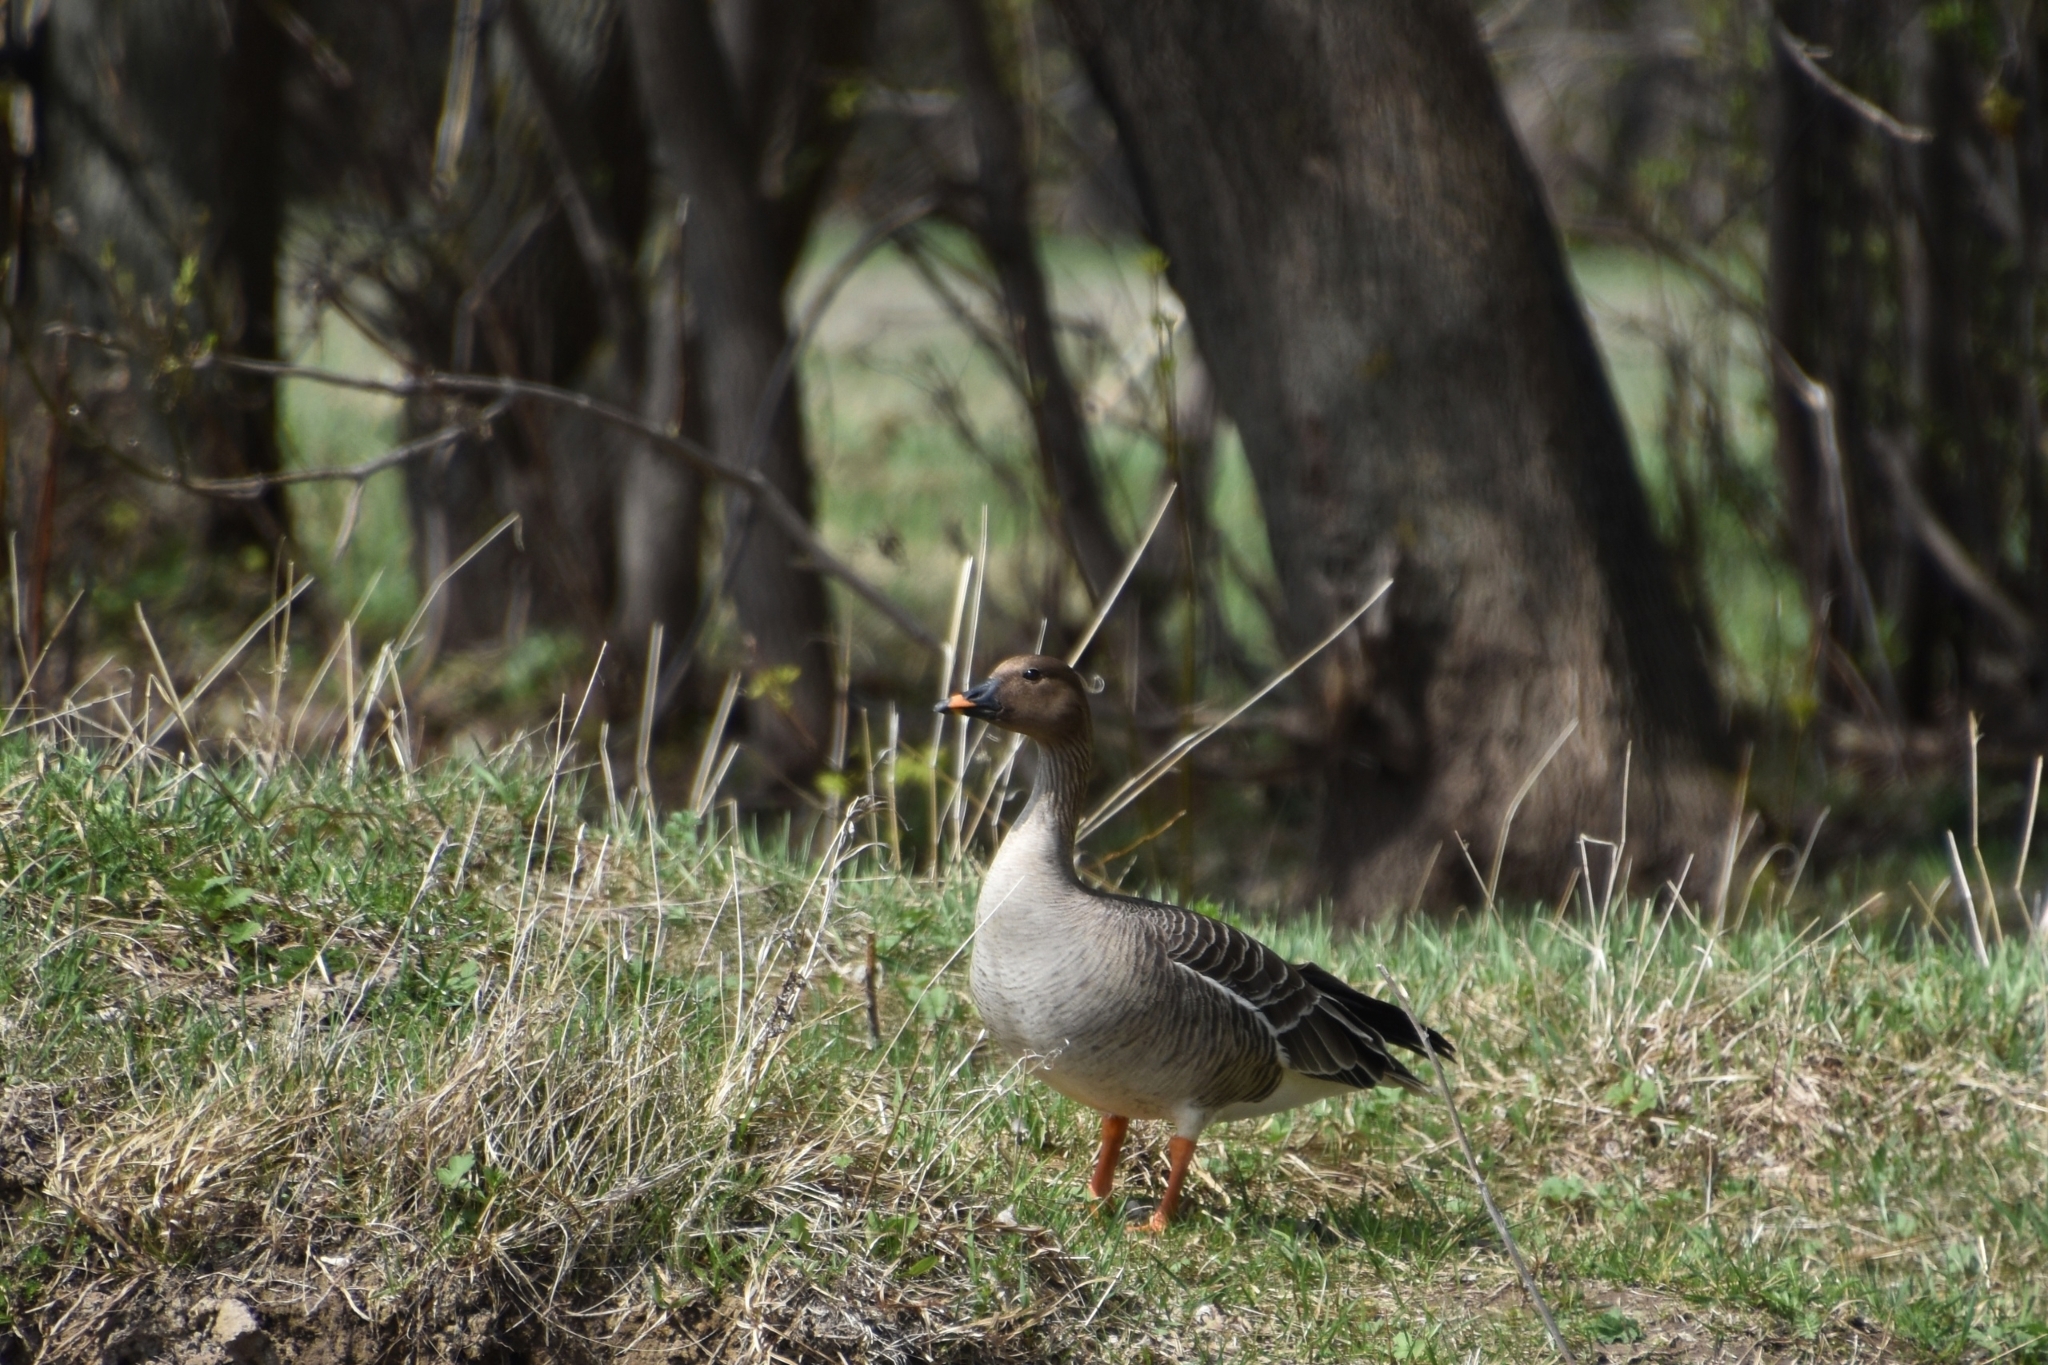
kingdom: Animalia
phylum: Chordata
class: Aves
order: Anseriformes
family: Anatidae
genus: Anser
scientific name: Anser fabalis
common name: Bean goose
